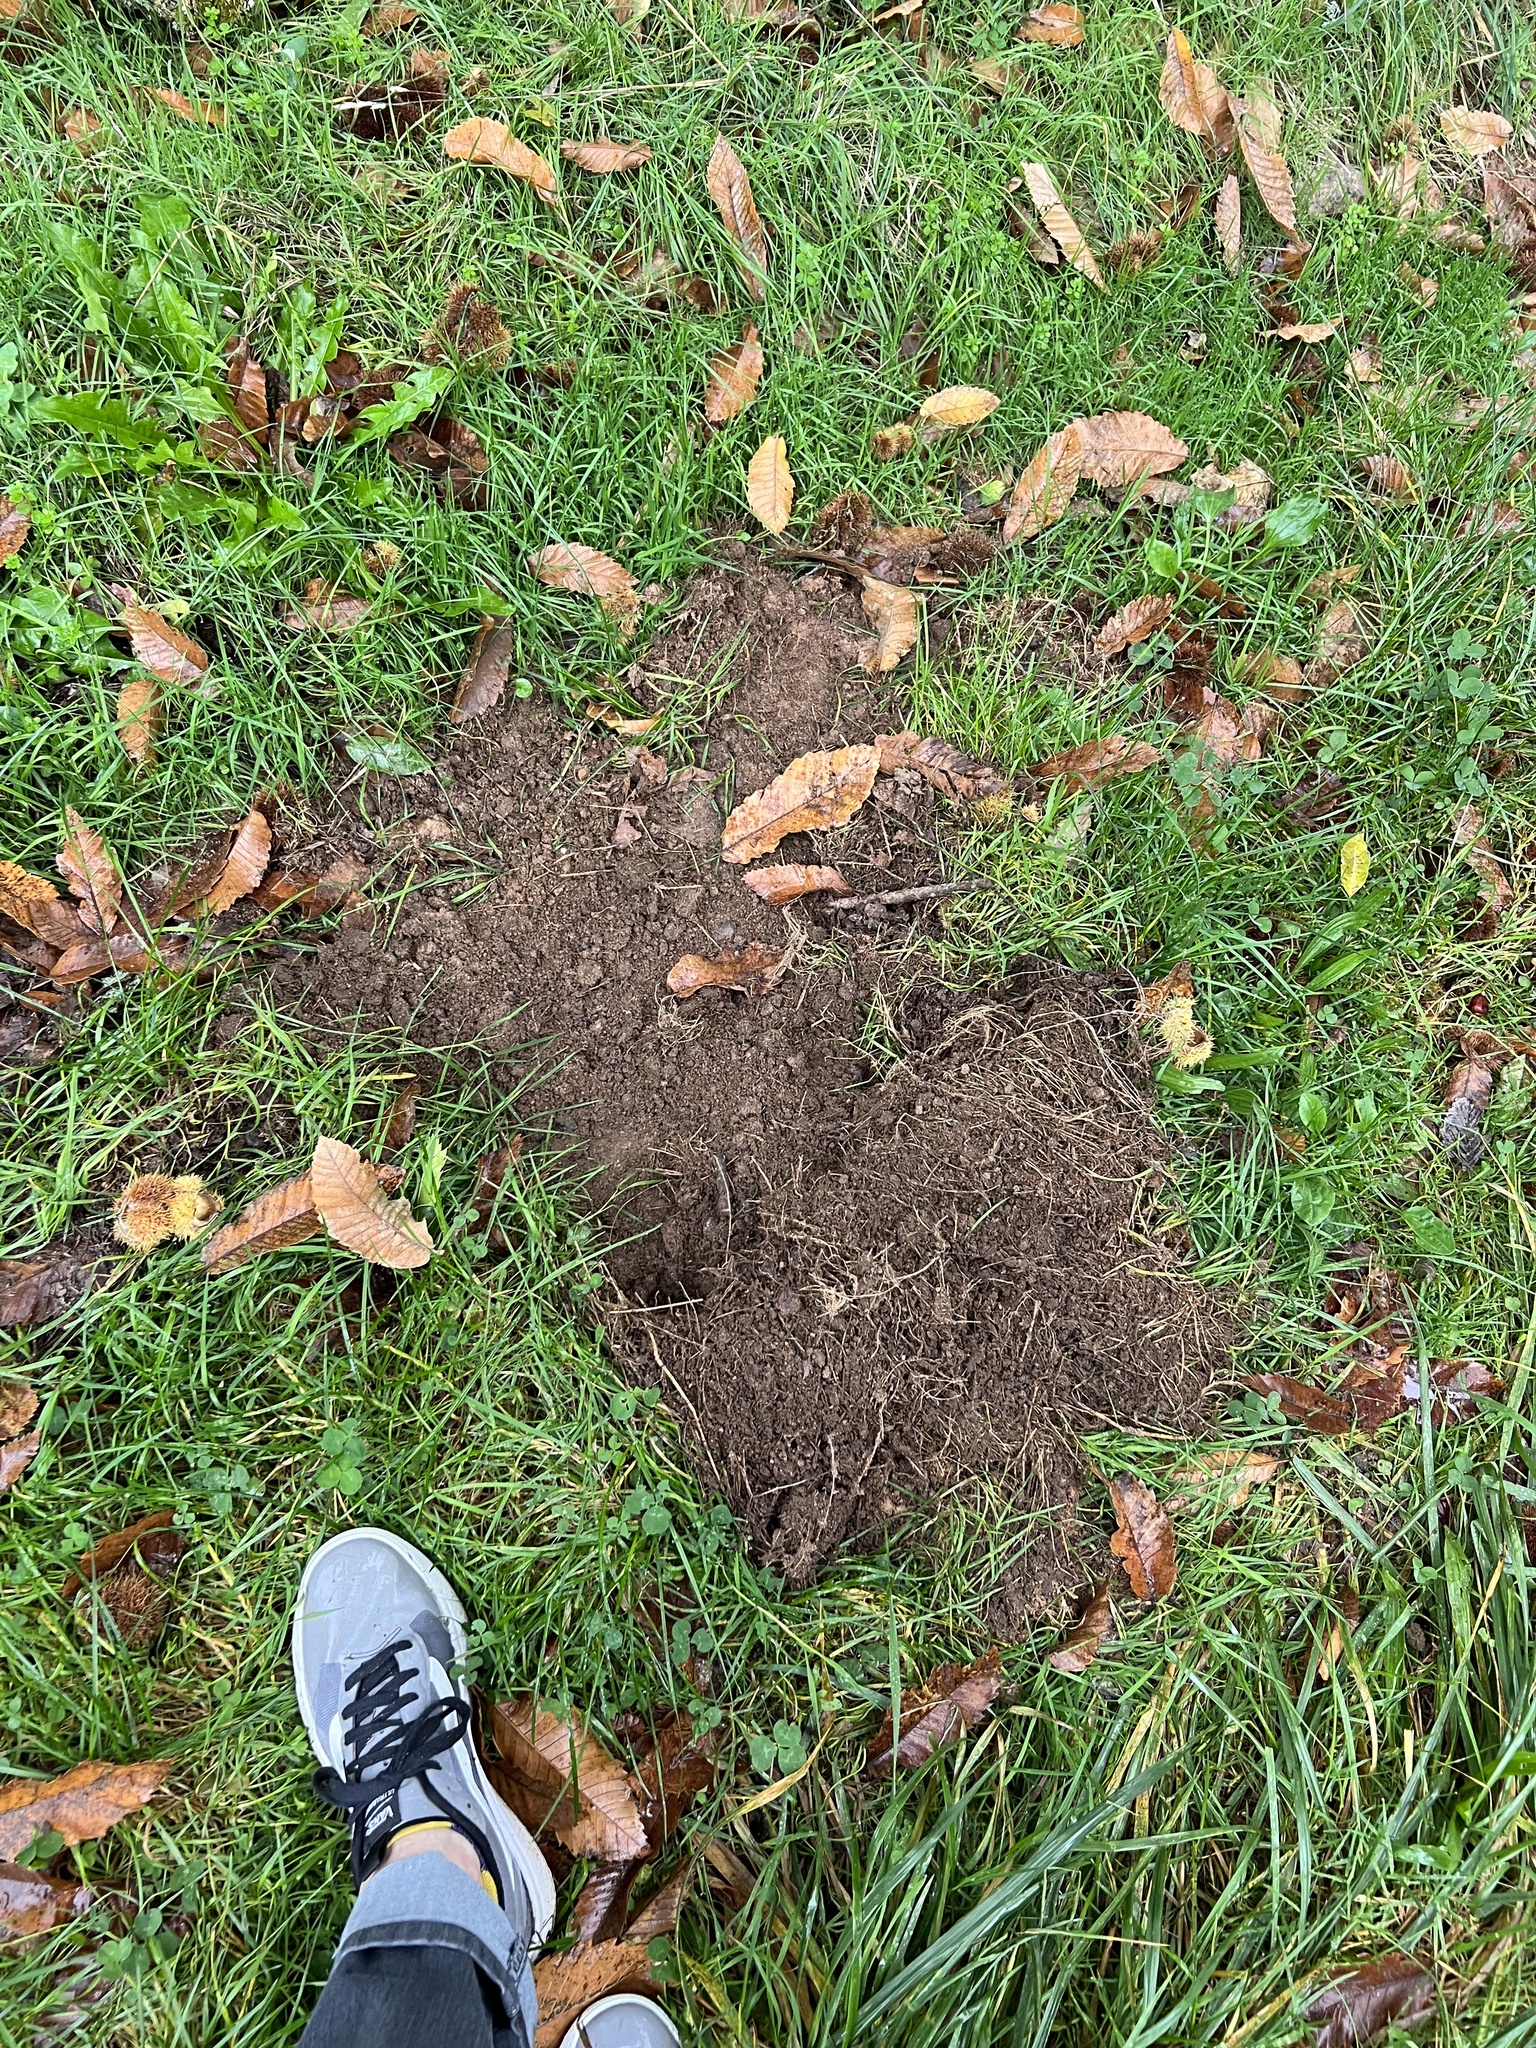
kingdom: Animalia
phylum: Chordata
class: Mammalia
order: Artiodactyla
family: Suidae
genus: Sus
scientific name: Sus scrofa
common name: Wild boar
